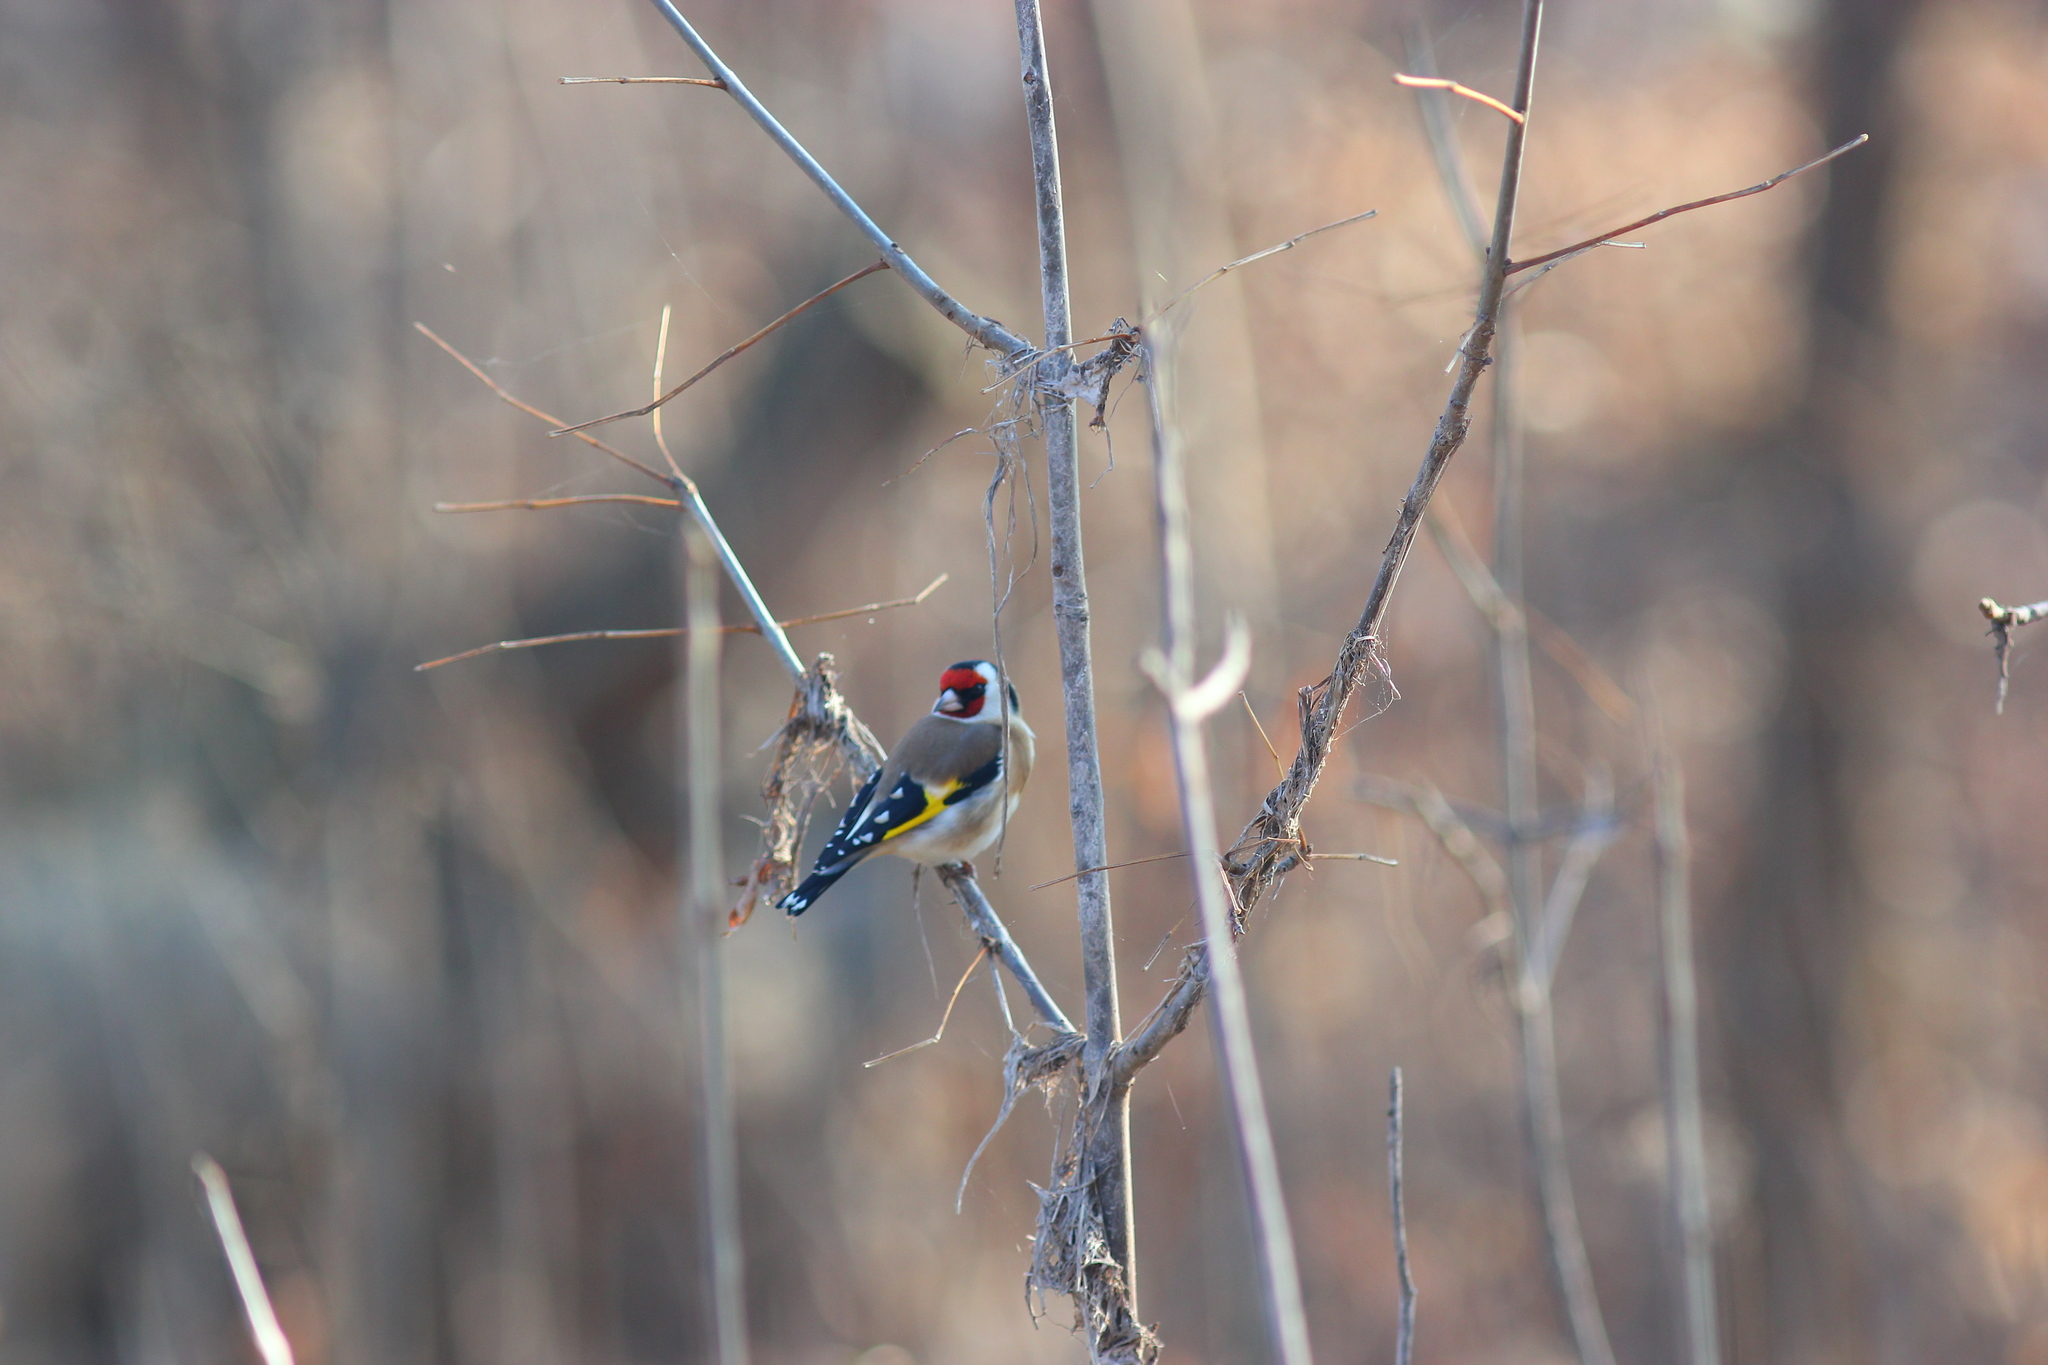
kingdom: Animalia
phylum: Chordata
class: Aves
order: Passeriformes
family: Fringillidae
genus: Carduelis
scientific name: Carduelis carduelis
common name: European goldfinch
